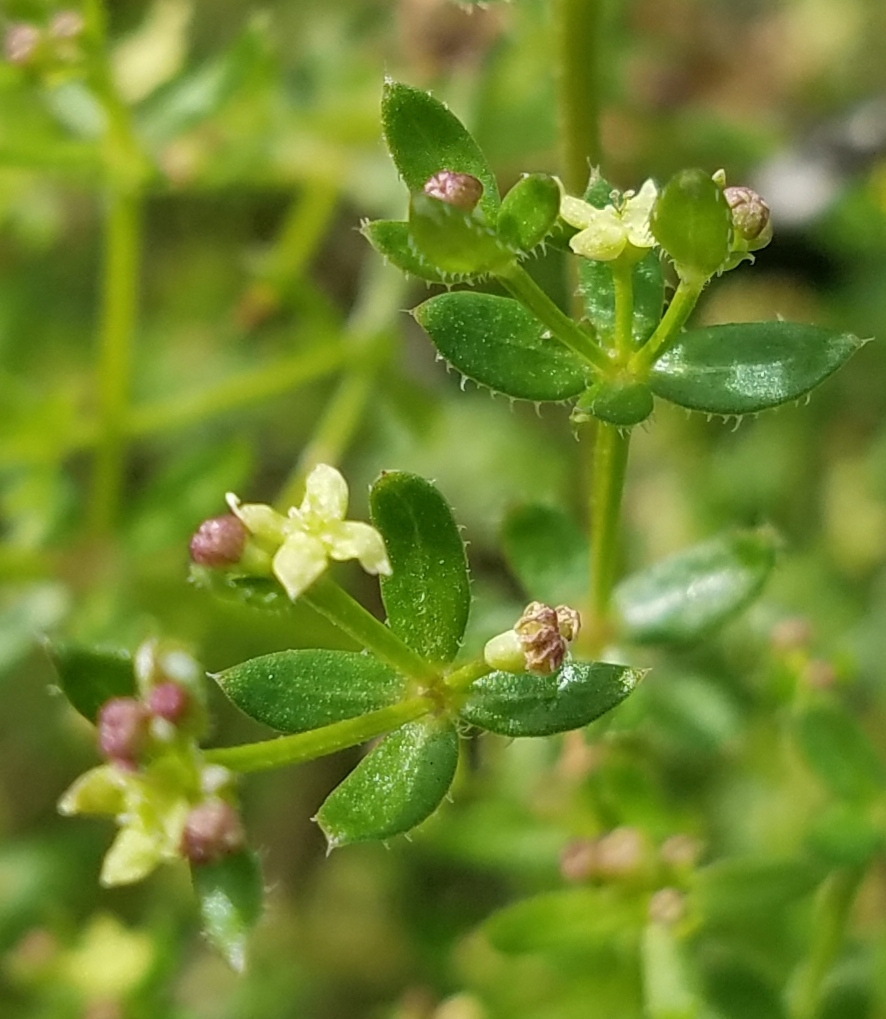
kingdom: Plantae
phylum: Tracheophyta
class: Magnoliopsida
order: Gentianales
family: Rubiaceae
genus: Galium
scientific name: Galium porrigens
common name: Climbing bedstraw
